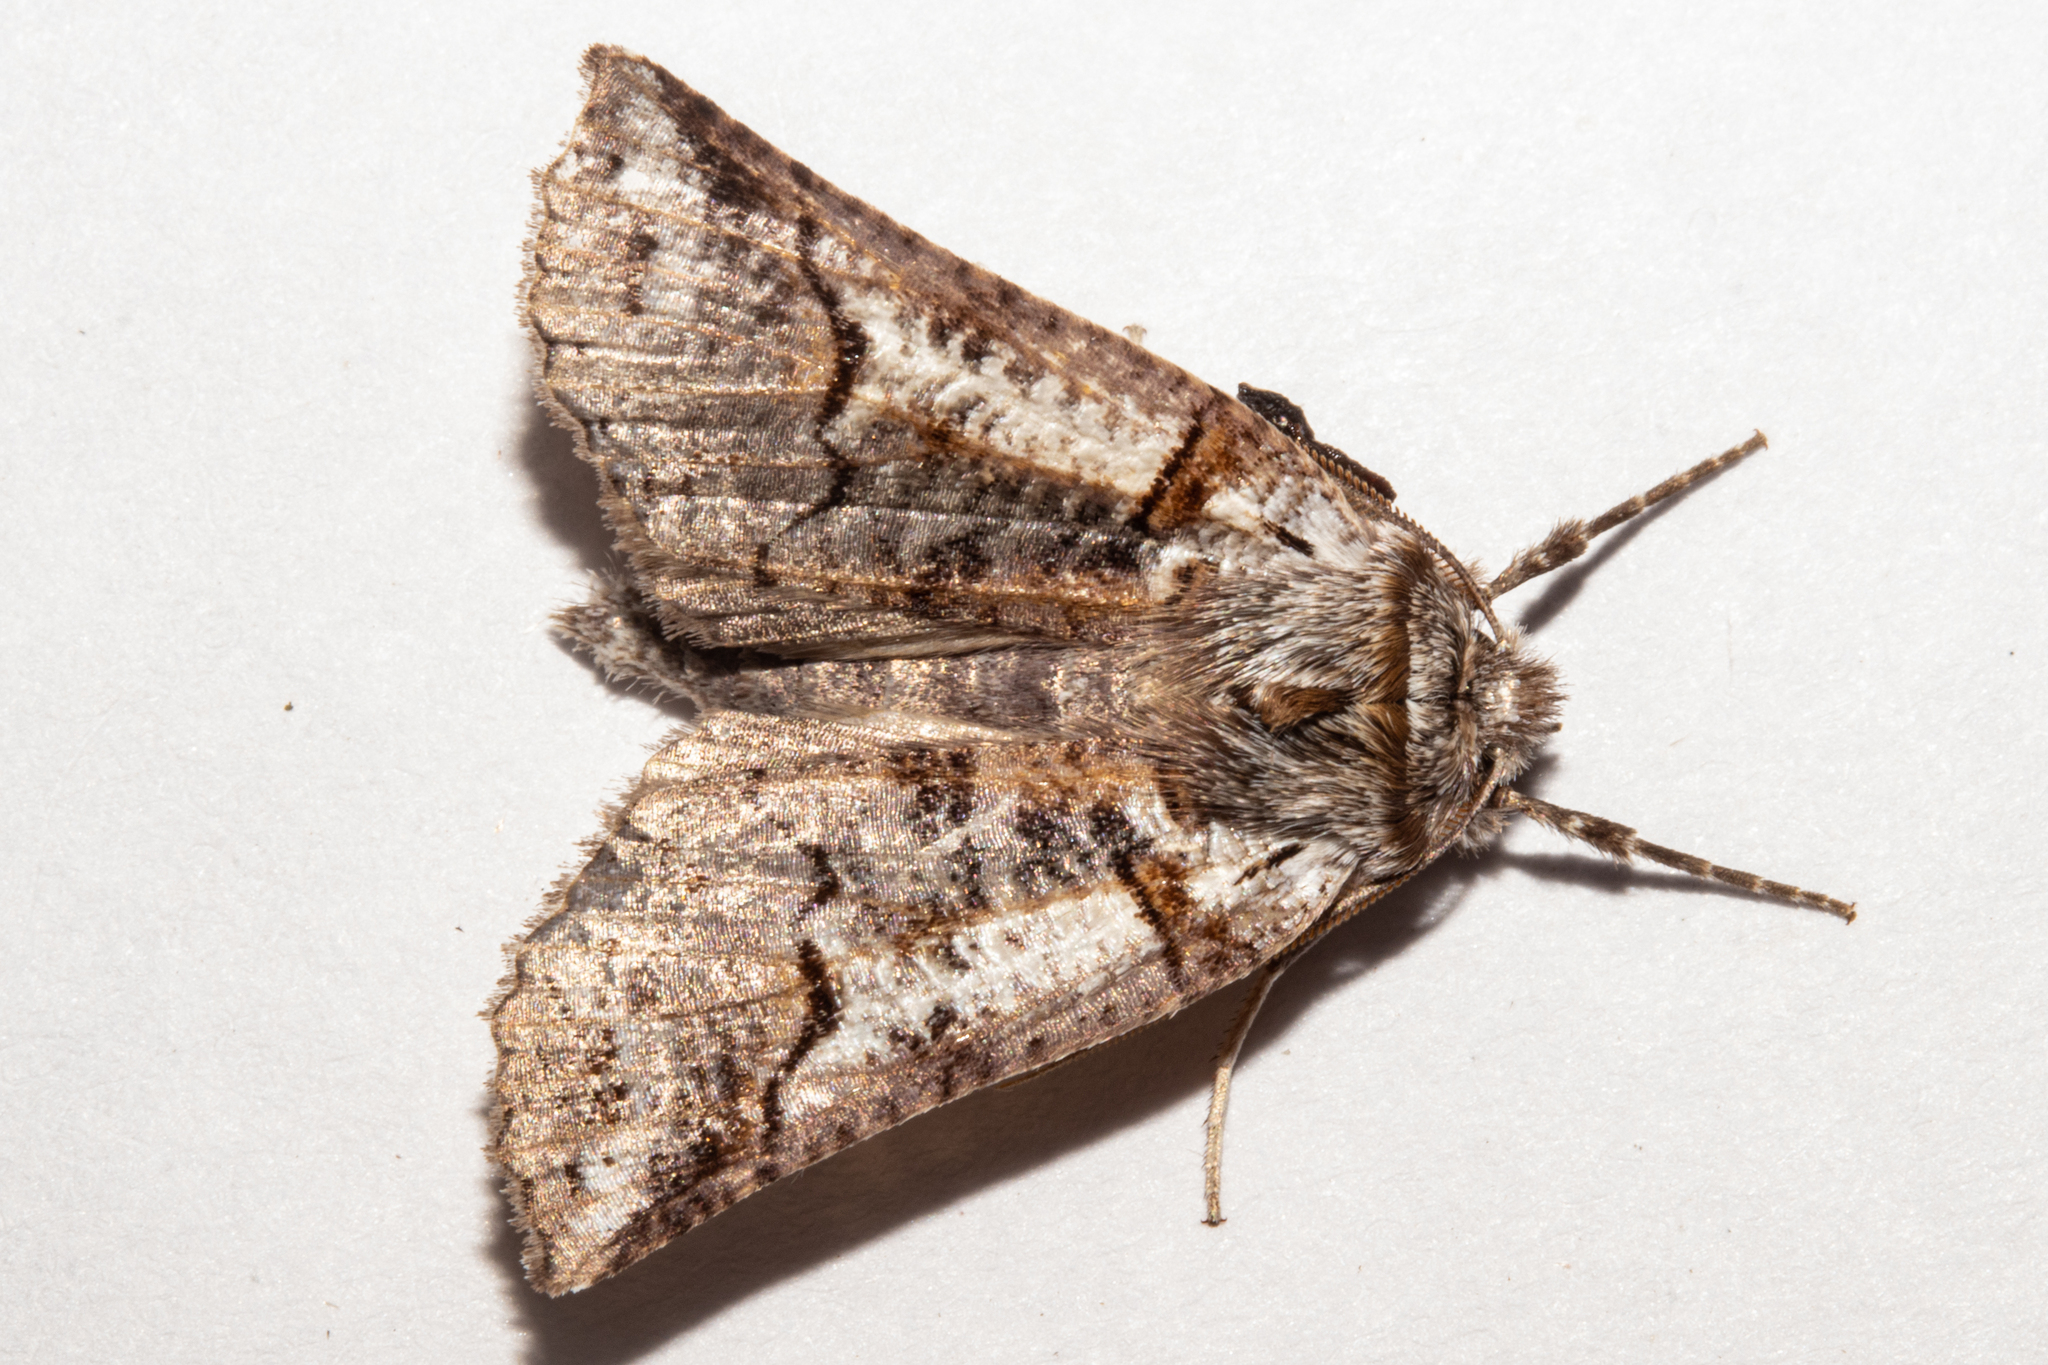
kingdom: Animalia
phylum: Arthropoda
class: Insecta
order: Lepidoptera
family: Geometridae
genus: Declana
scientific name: Declana
